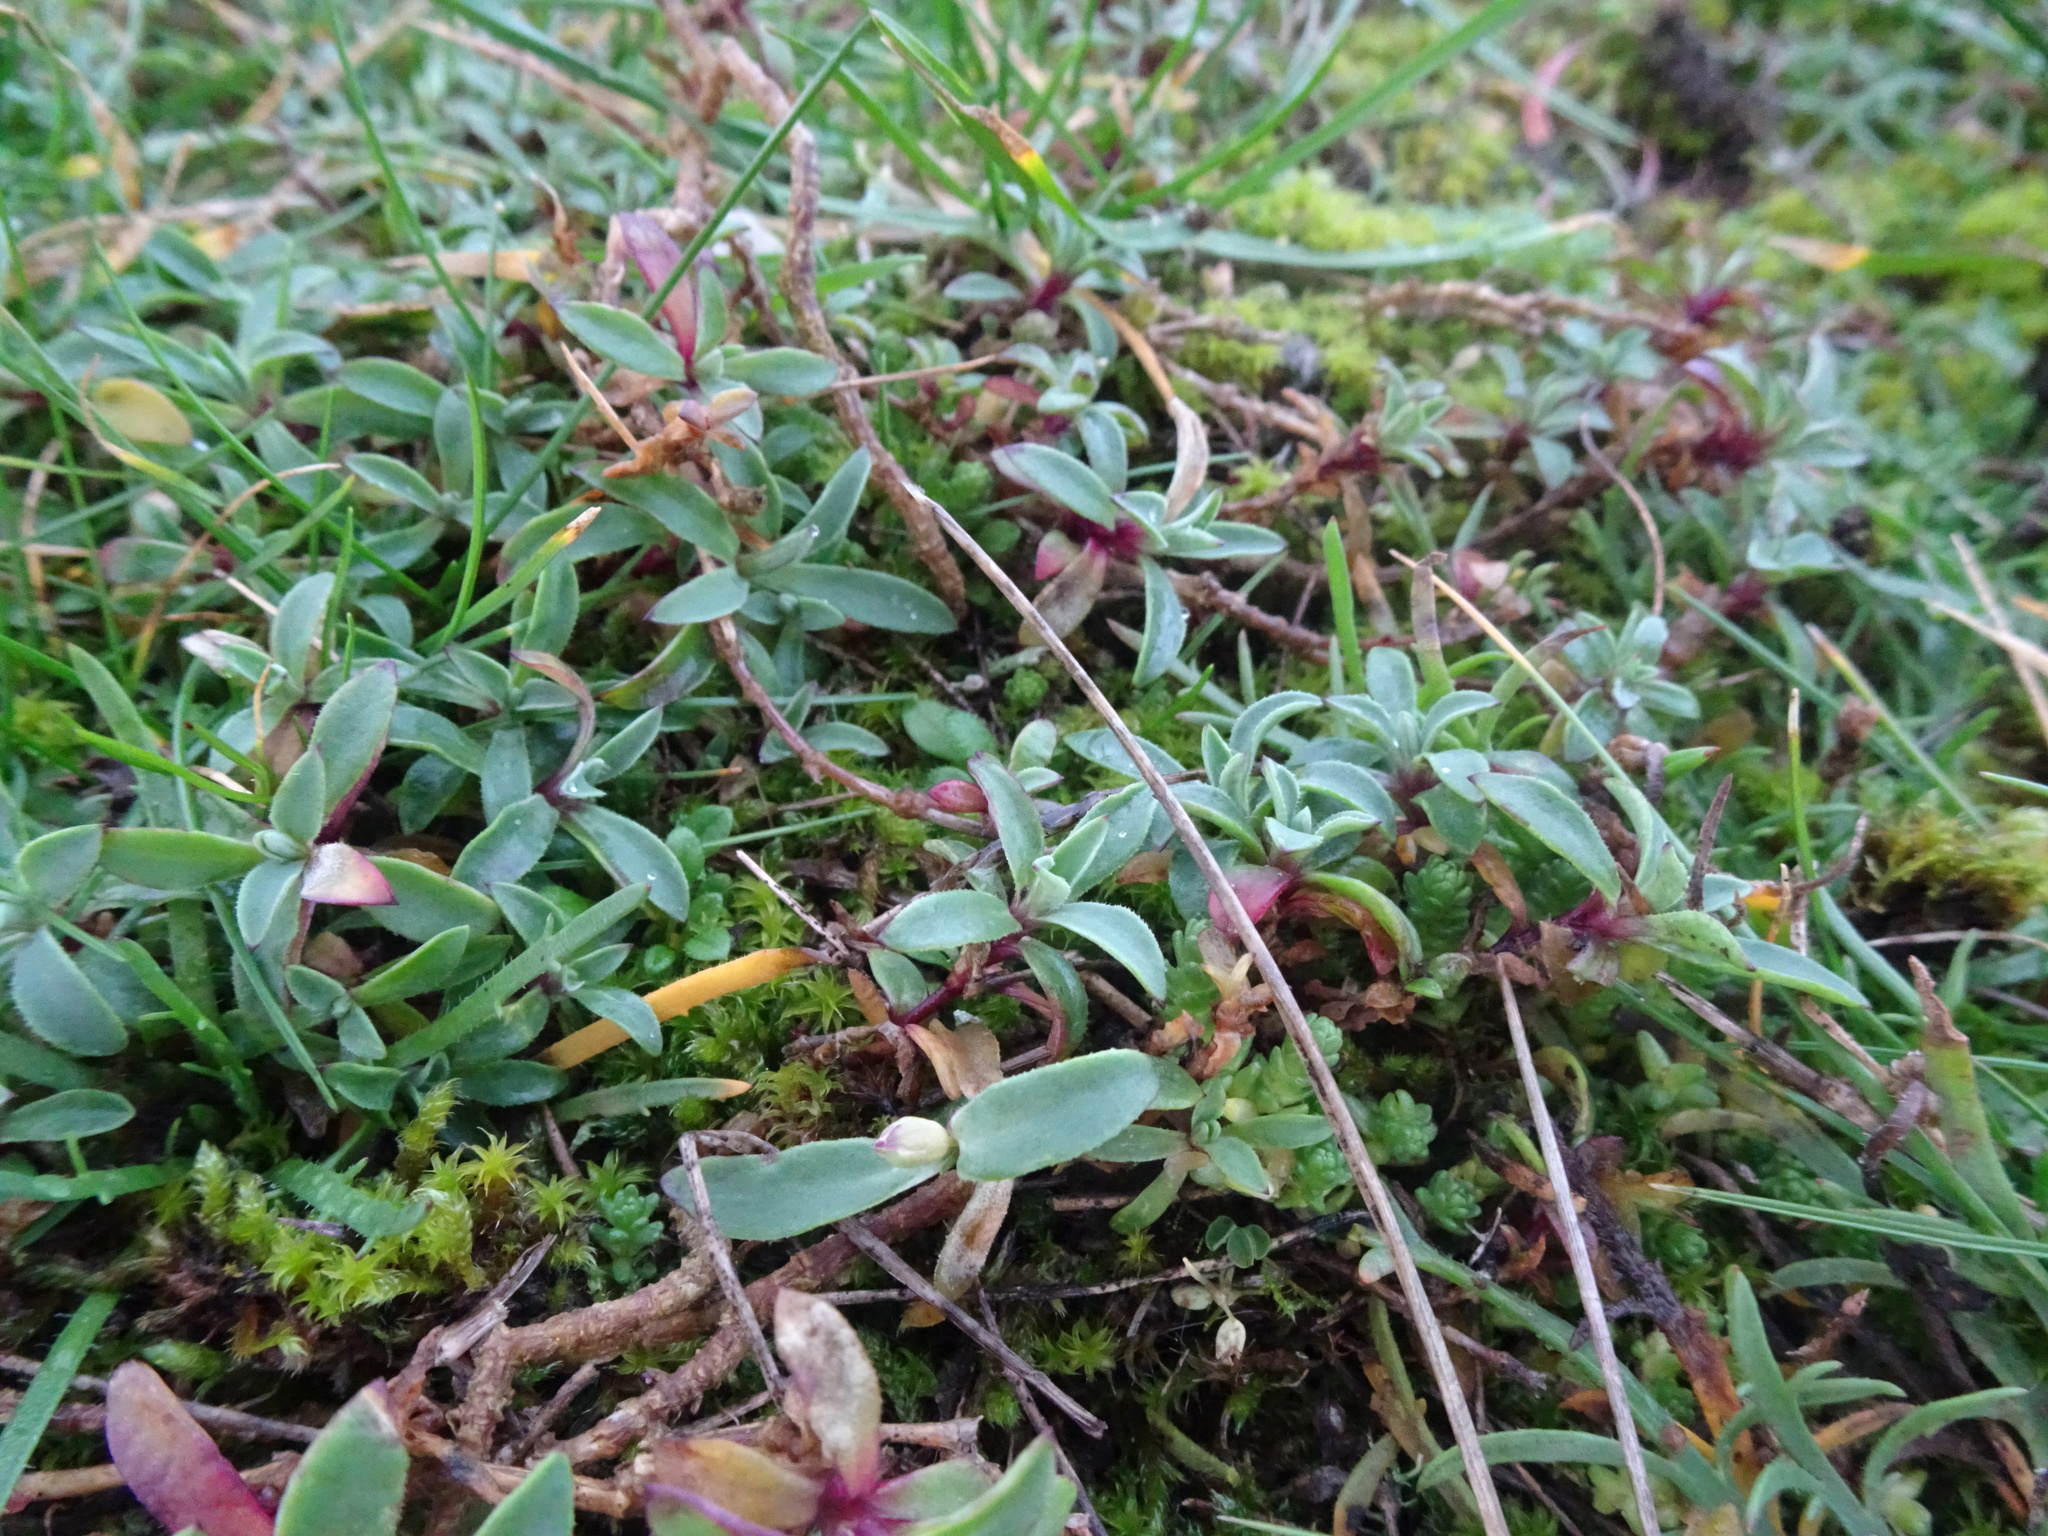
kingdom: Plantae
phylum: Tracheophyta
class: Magnoliopsida
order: Caryophyllales
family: Caryophyllaceae
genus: Silene
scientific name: Silene uniflora
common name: Sea campion
